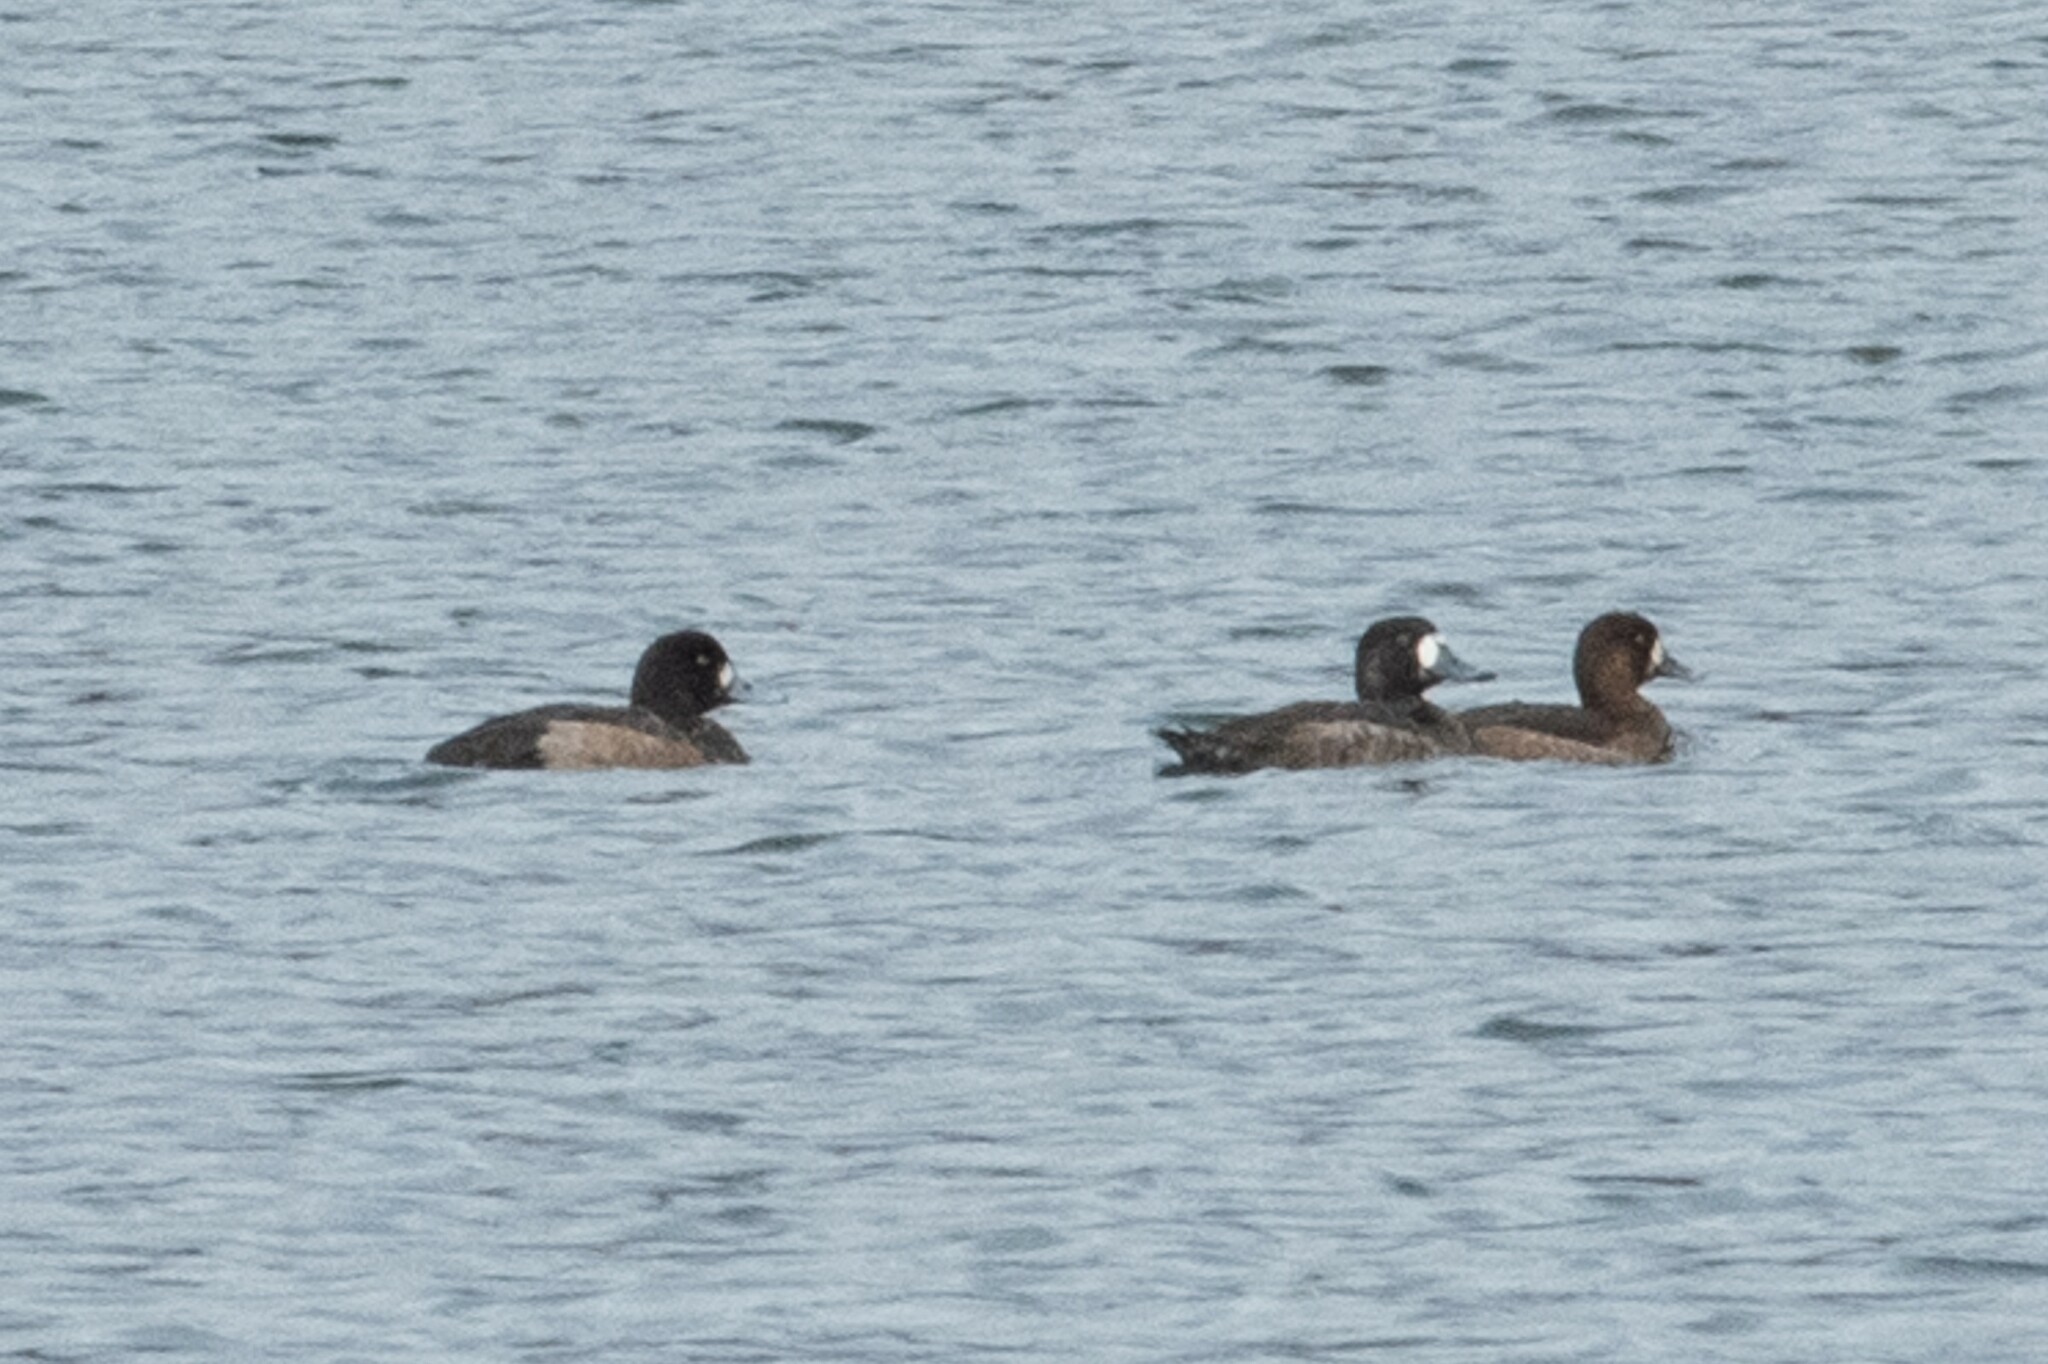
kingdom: Animalia
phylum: Chordata
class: Aves
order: Anseriformes
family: Anatidae
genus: Aythya
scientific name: Aythya marila
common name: Greater scaup
